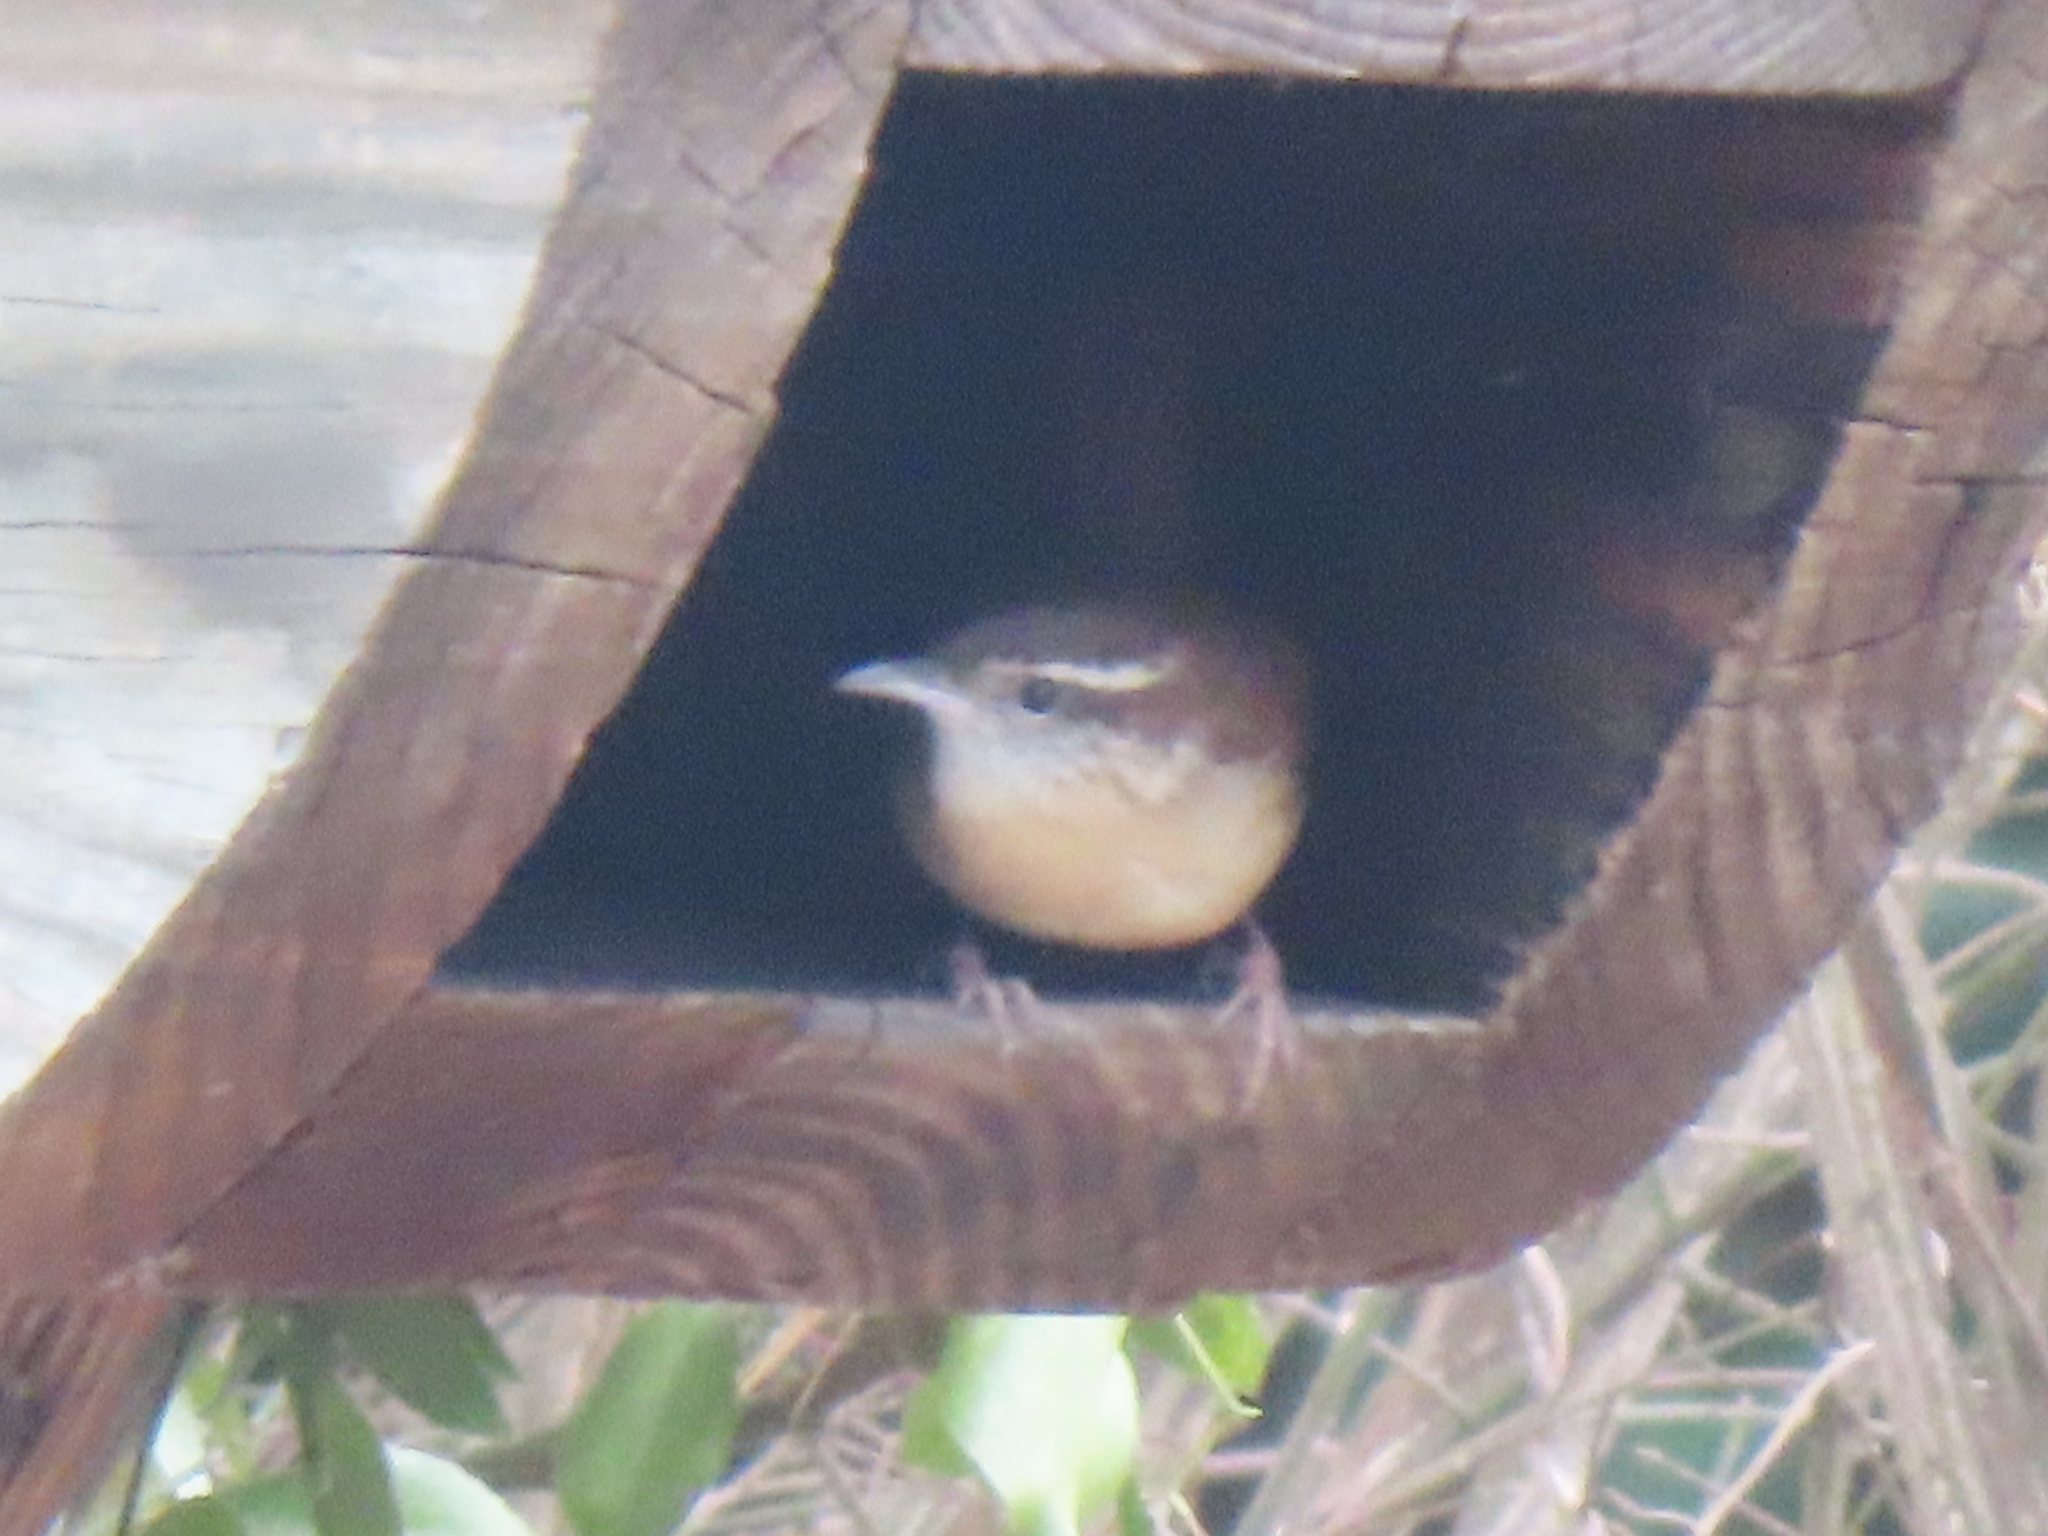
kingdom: Animalia
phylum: Chordata
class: Aves
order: Passeriformes
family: Troglodytidae
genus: Thryothorus
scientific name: Thryothorus ludovicianus
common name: Carolina wren
